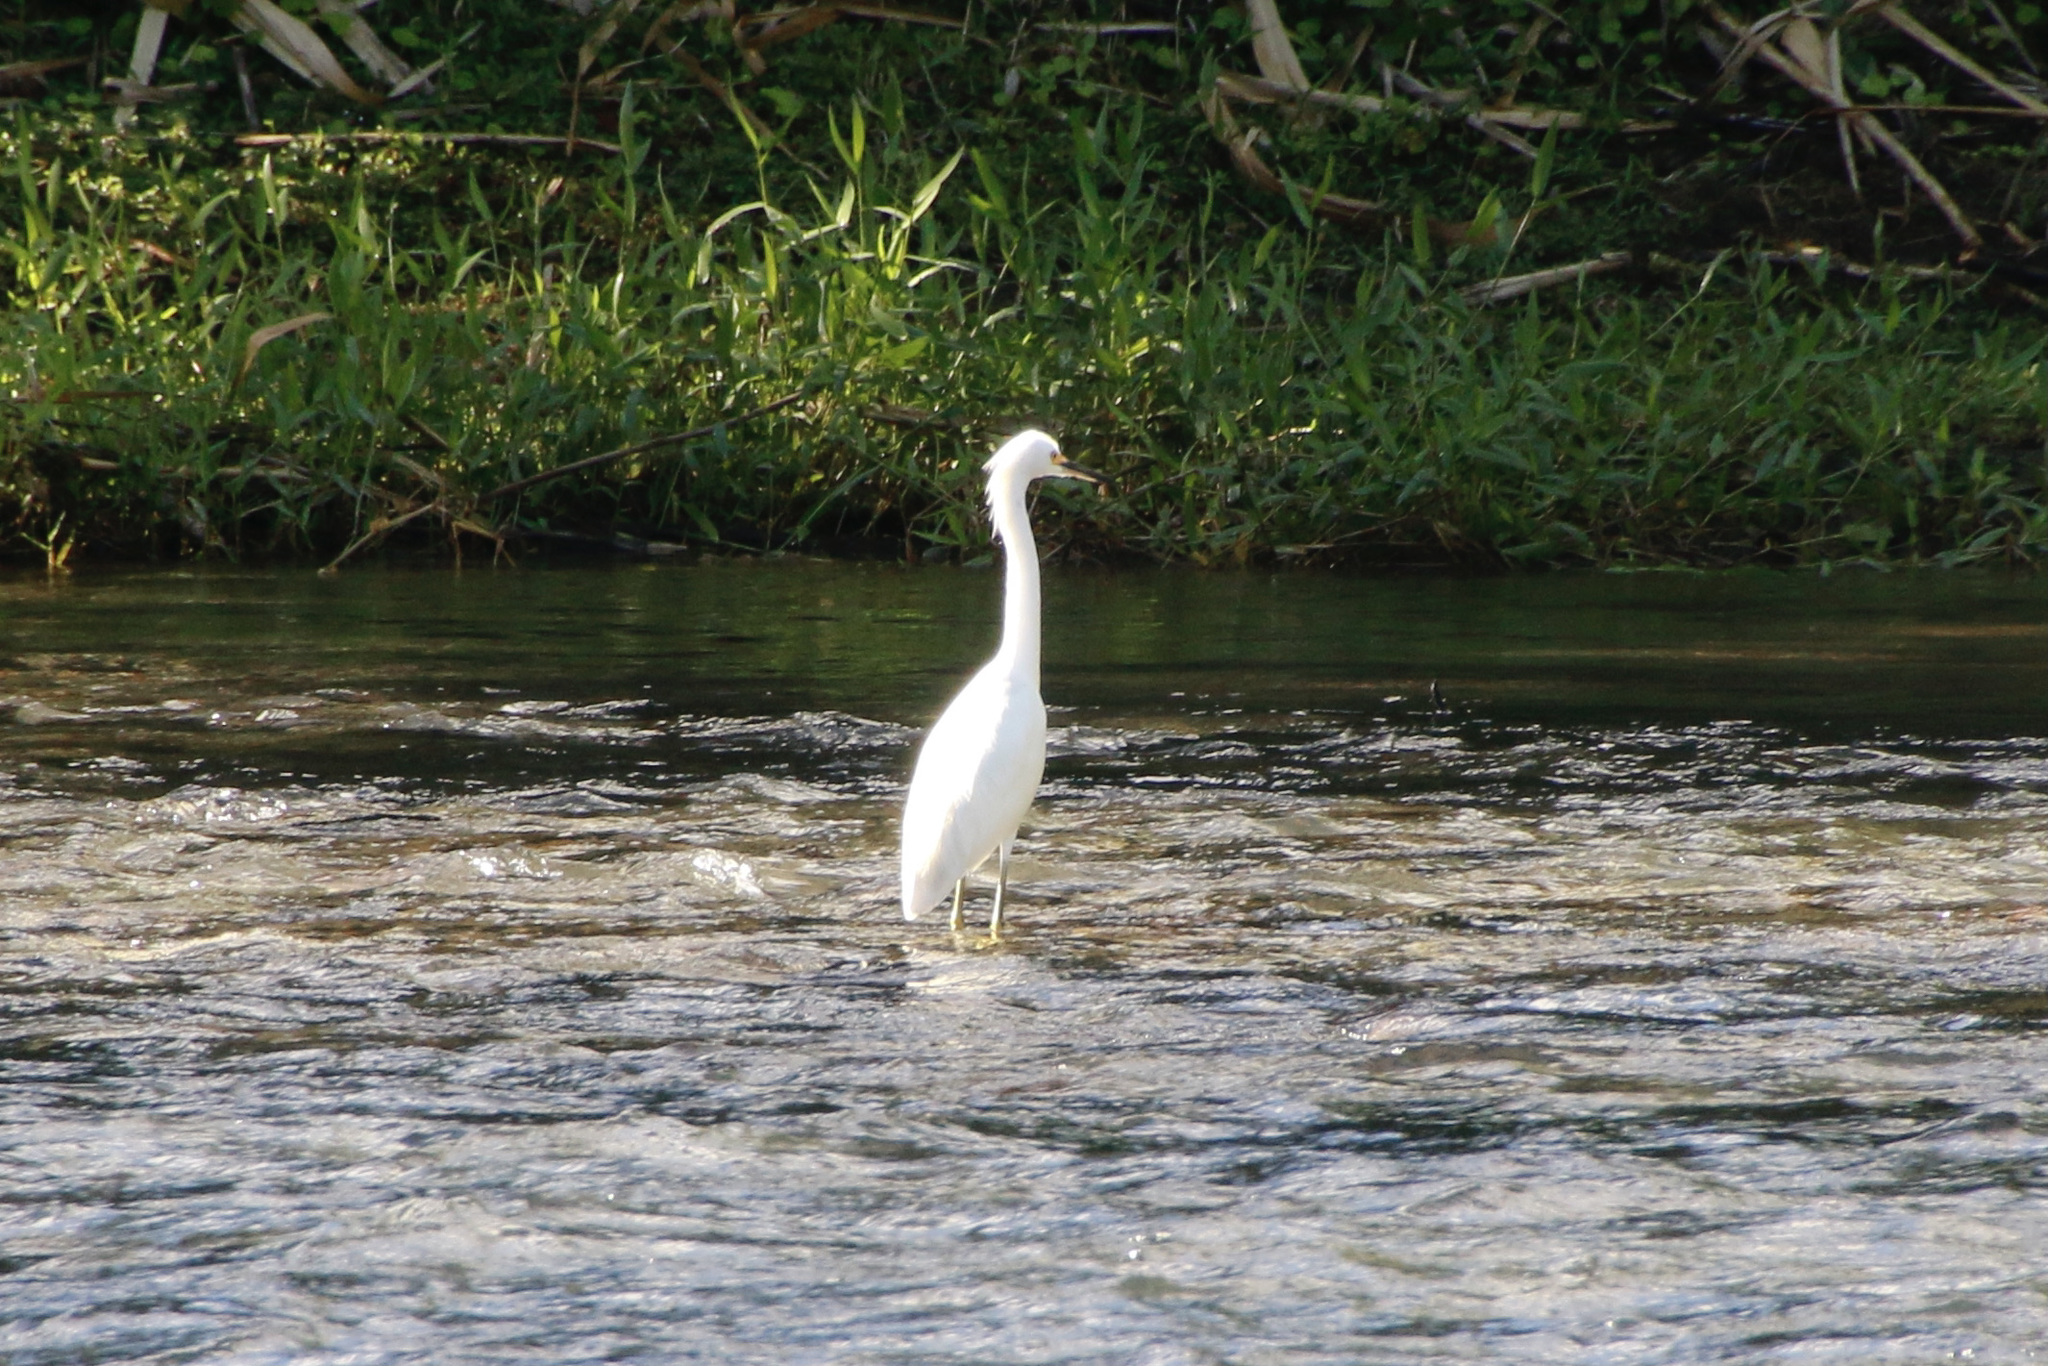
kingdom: Animalia
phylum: Chordata
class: Aves
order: Pelecaniformes
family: Ardeidae
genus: Egretta
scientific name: Egretta thula
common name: Snowy egret
